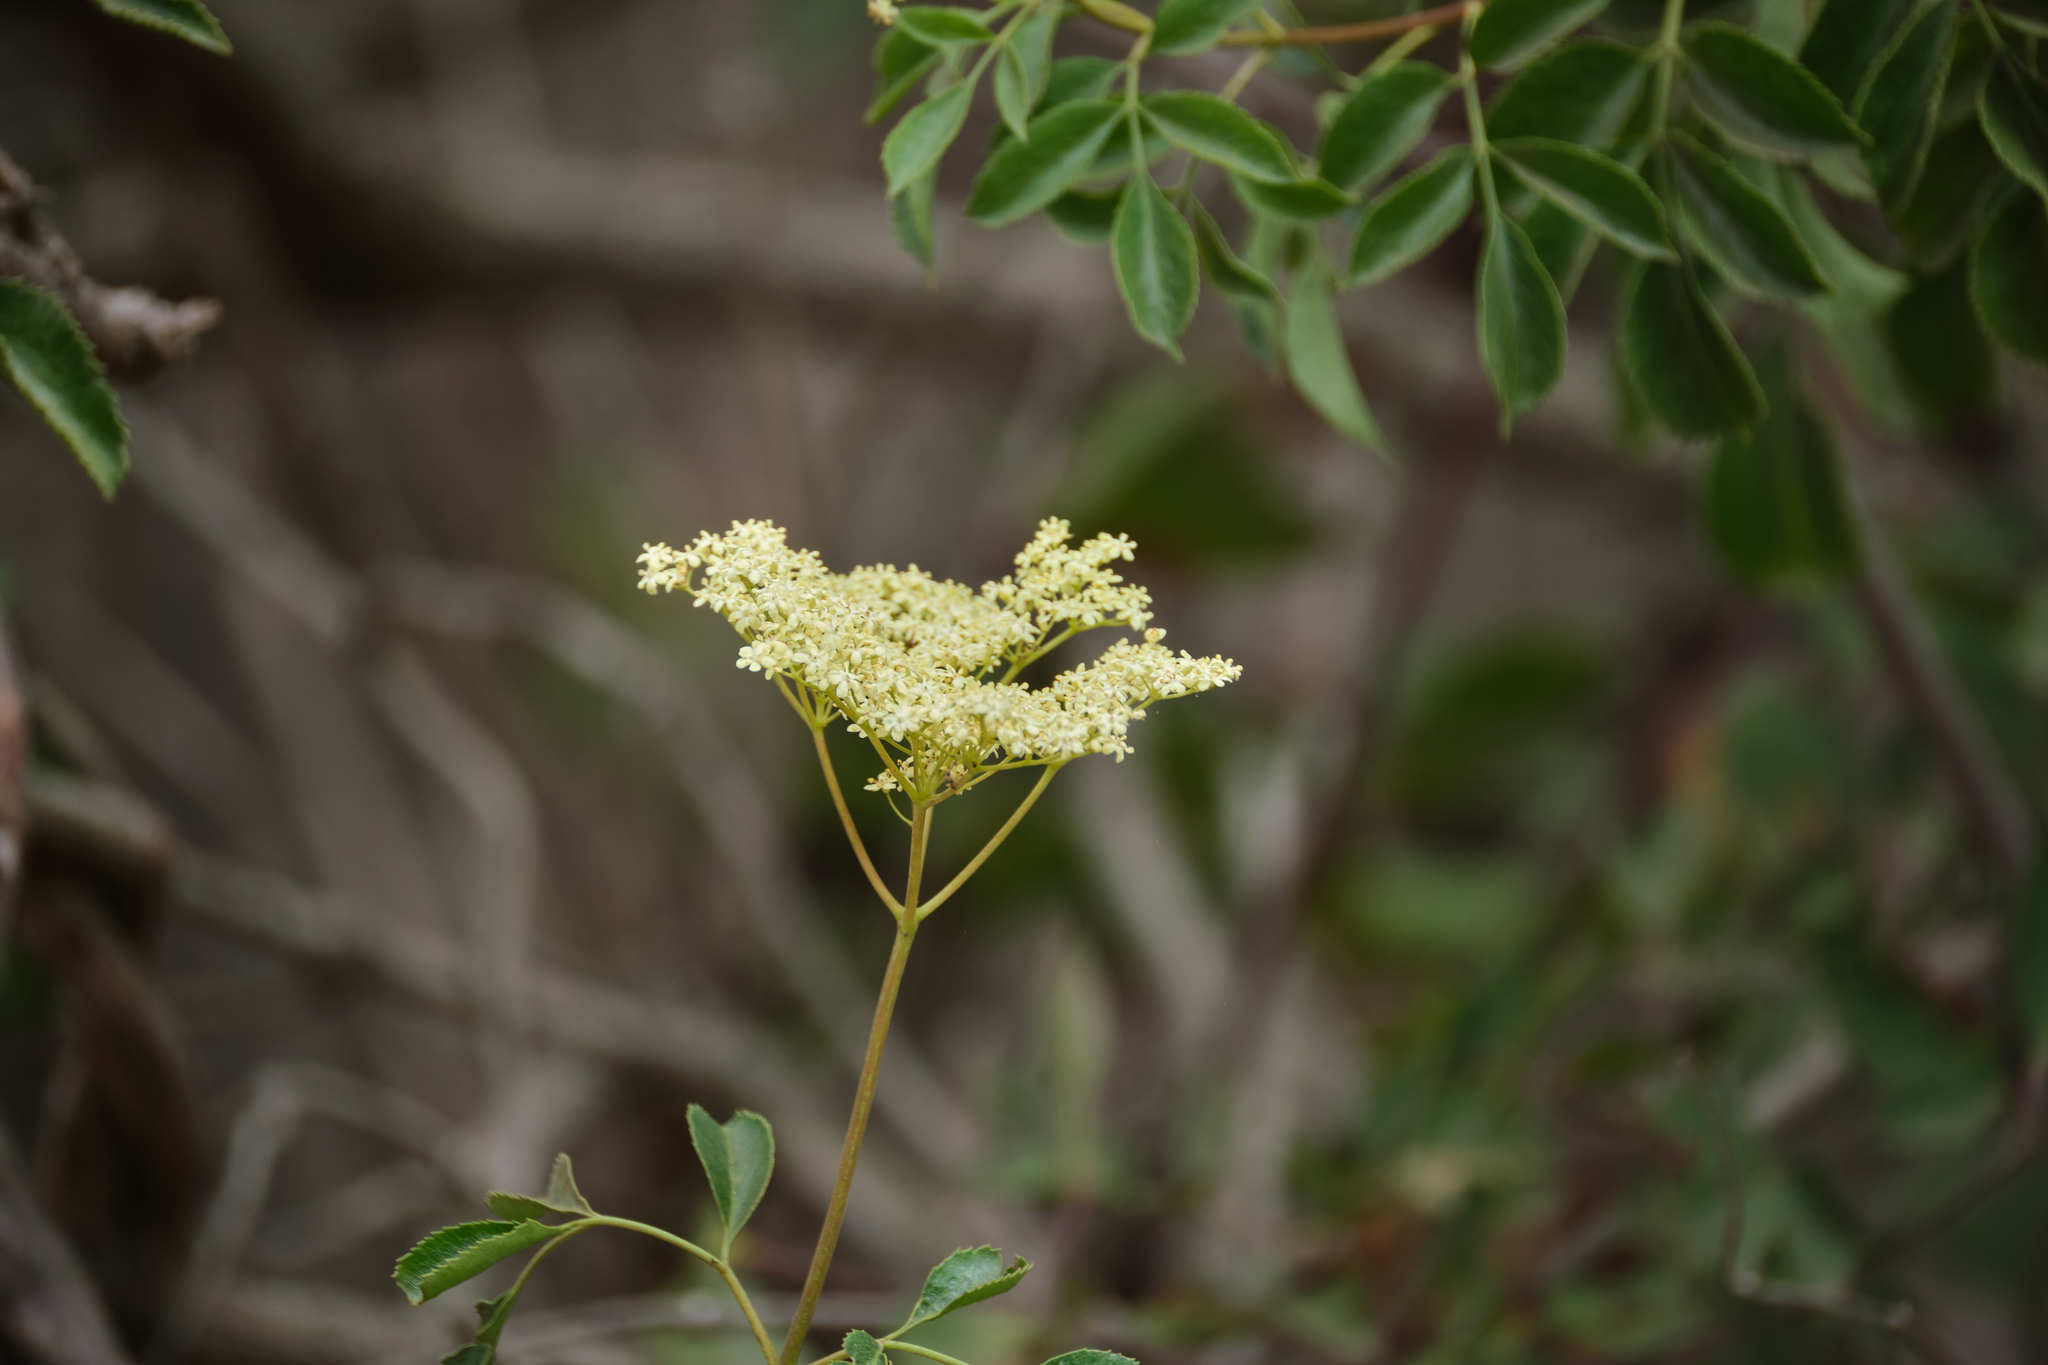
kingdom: Plantae
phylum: Tracheophyta
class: Magnoliopsida
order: Dipsacales
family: Viburnaceae
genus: Sambucus
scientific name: Sambucus cerulea
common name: Blue elder
